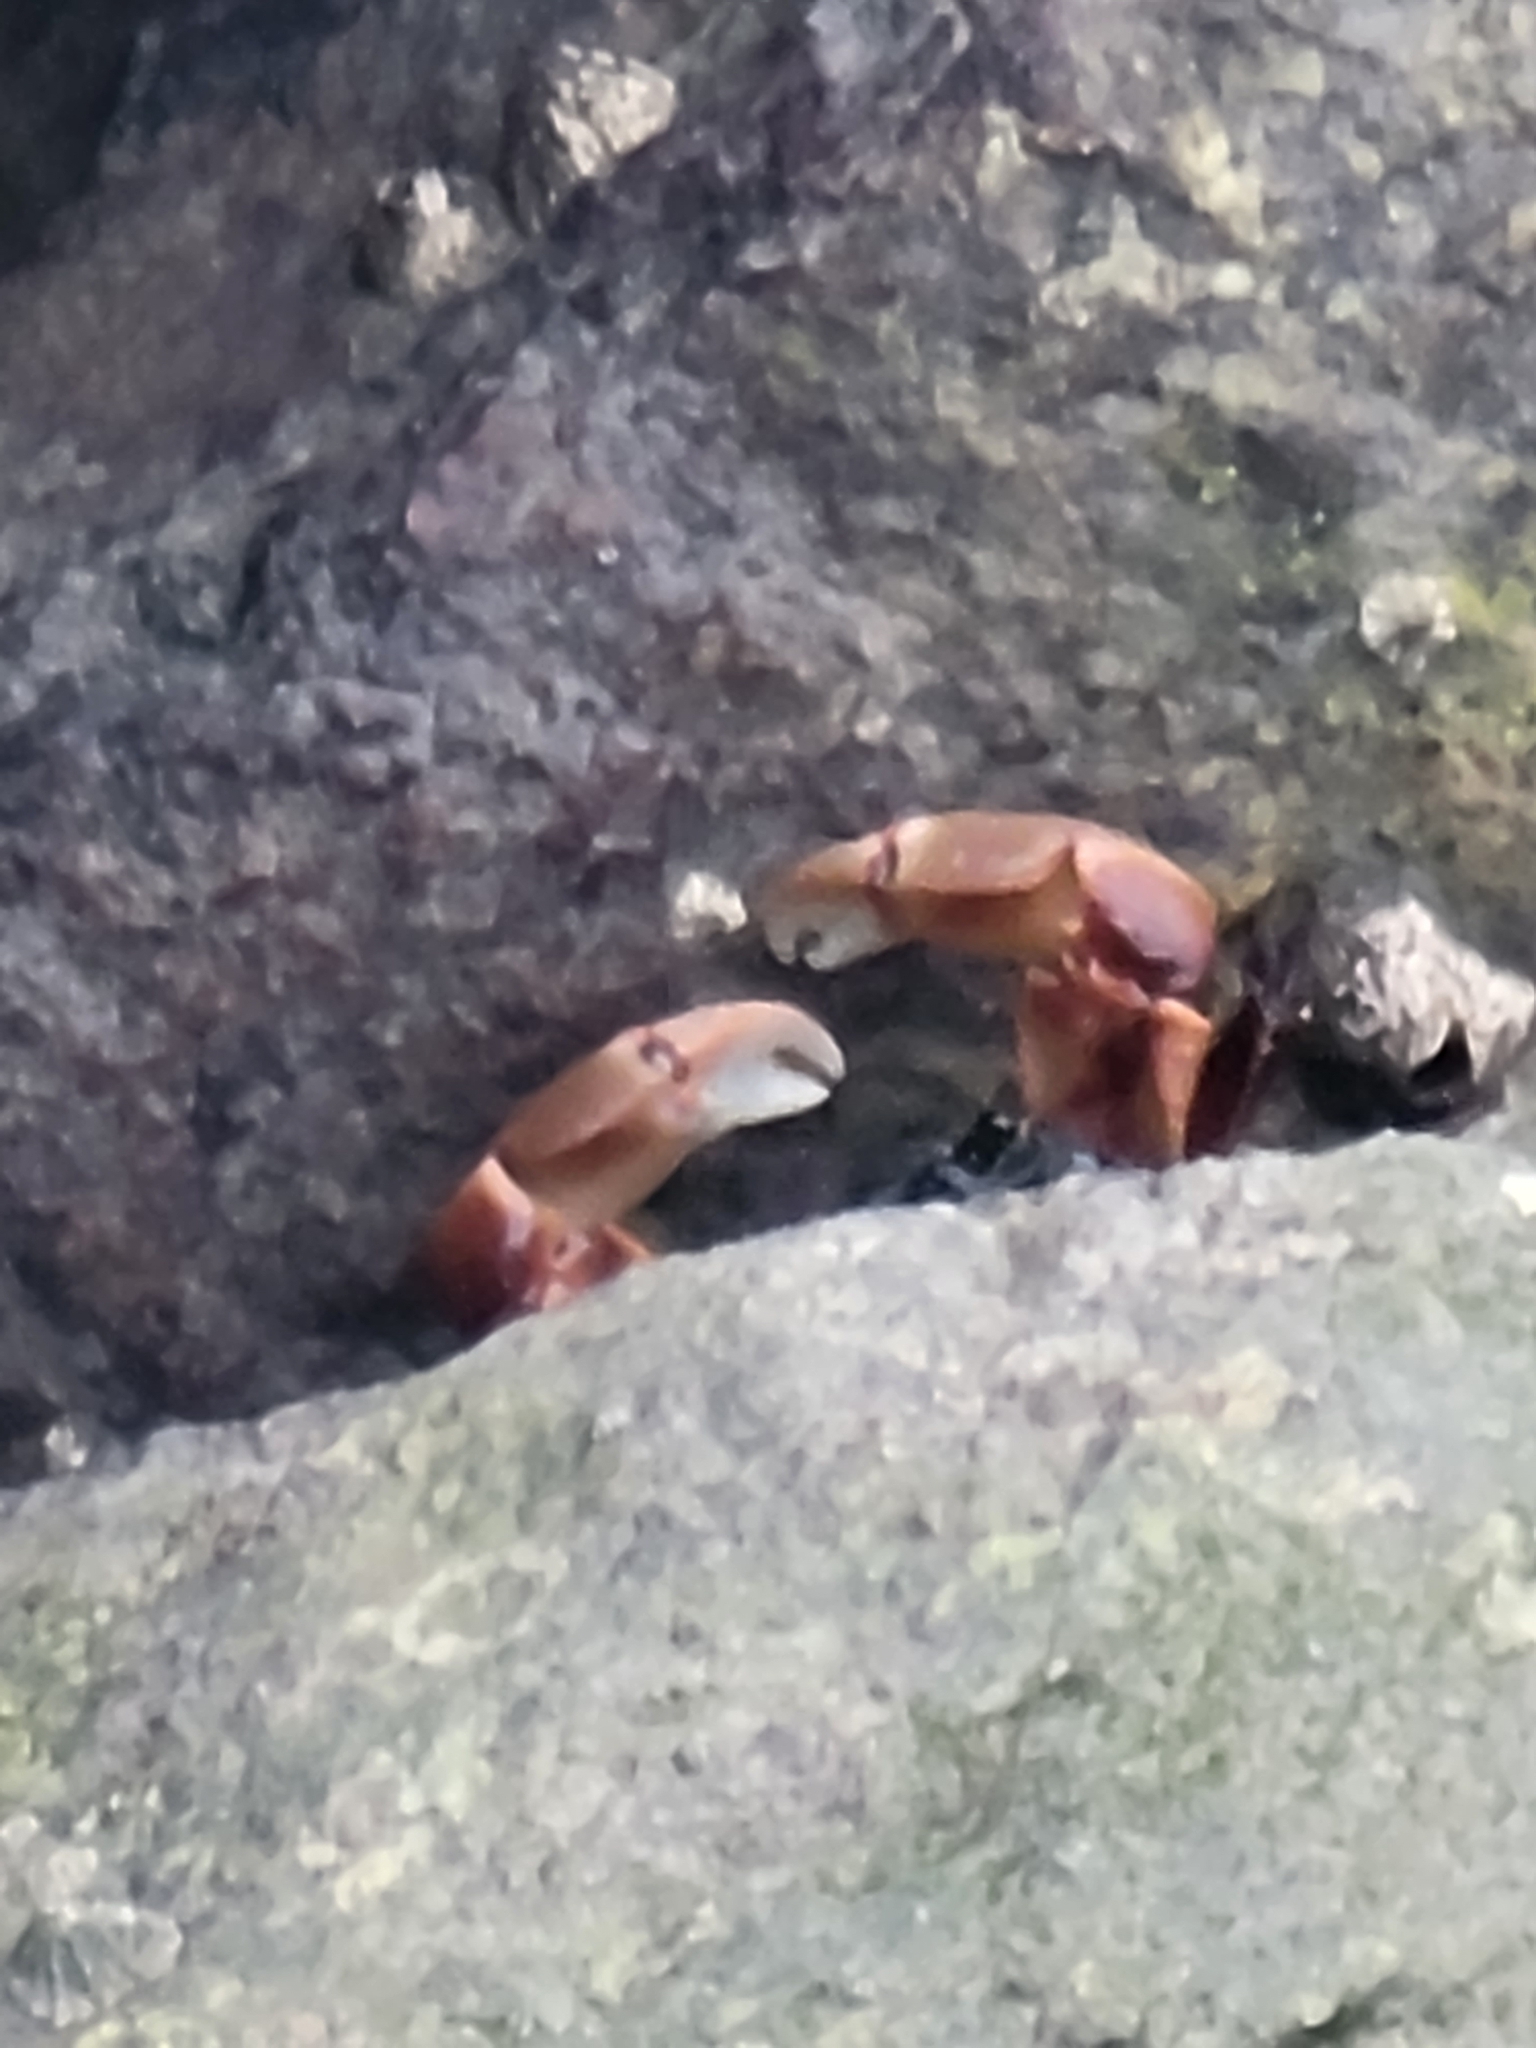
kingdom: Animalia
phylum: Arthropoda
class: Malacostraca
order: Decapoda
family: Grapsidae
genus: Pachygrapsus
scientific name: Pachygrapsus crassipes
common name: Striped shore crab
